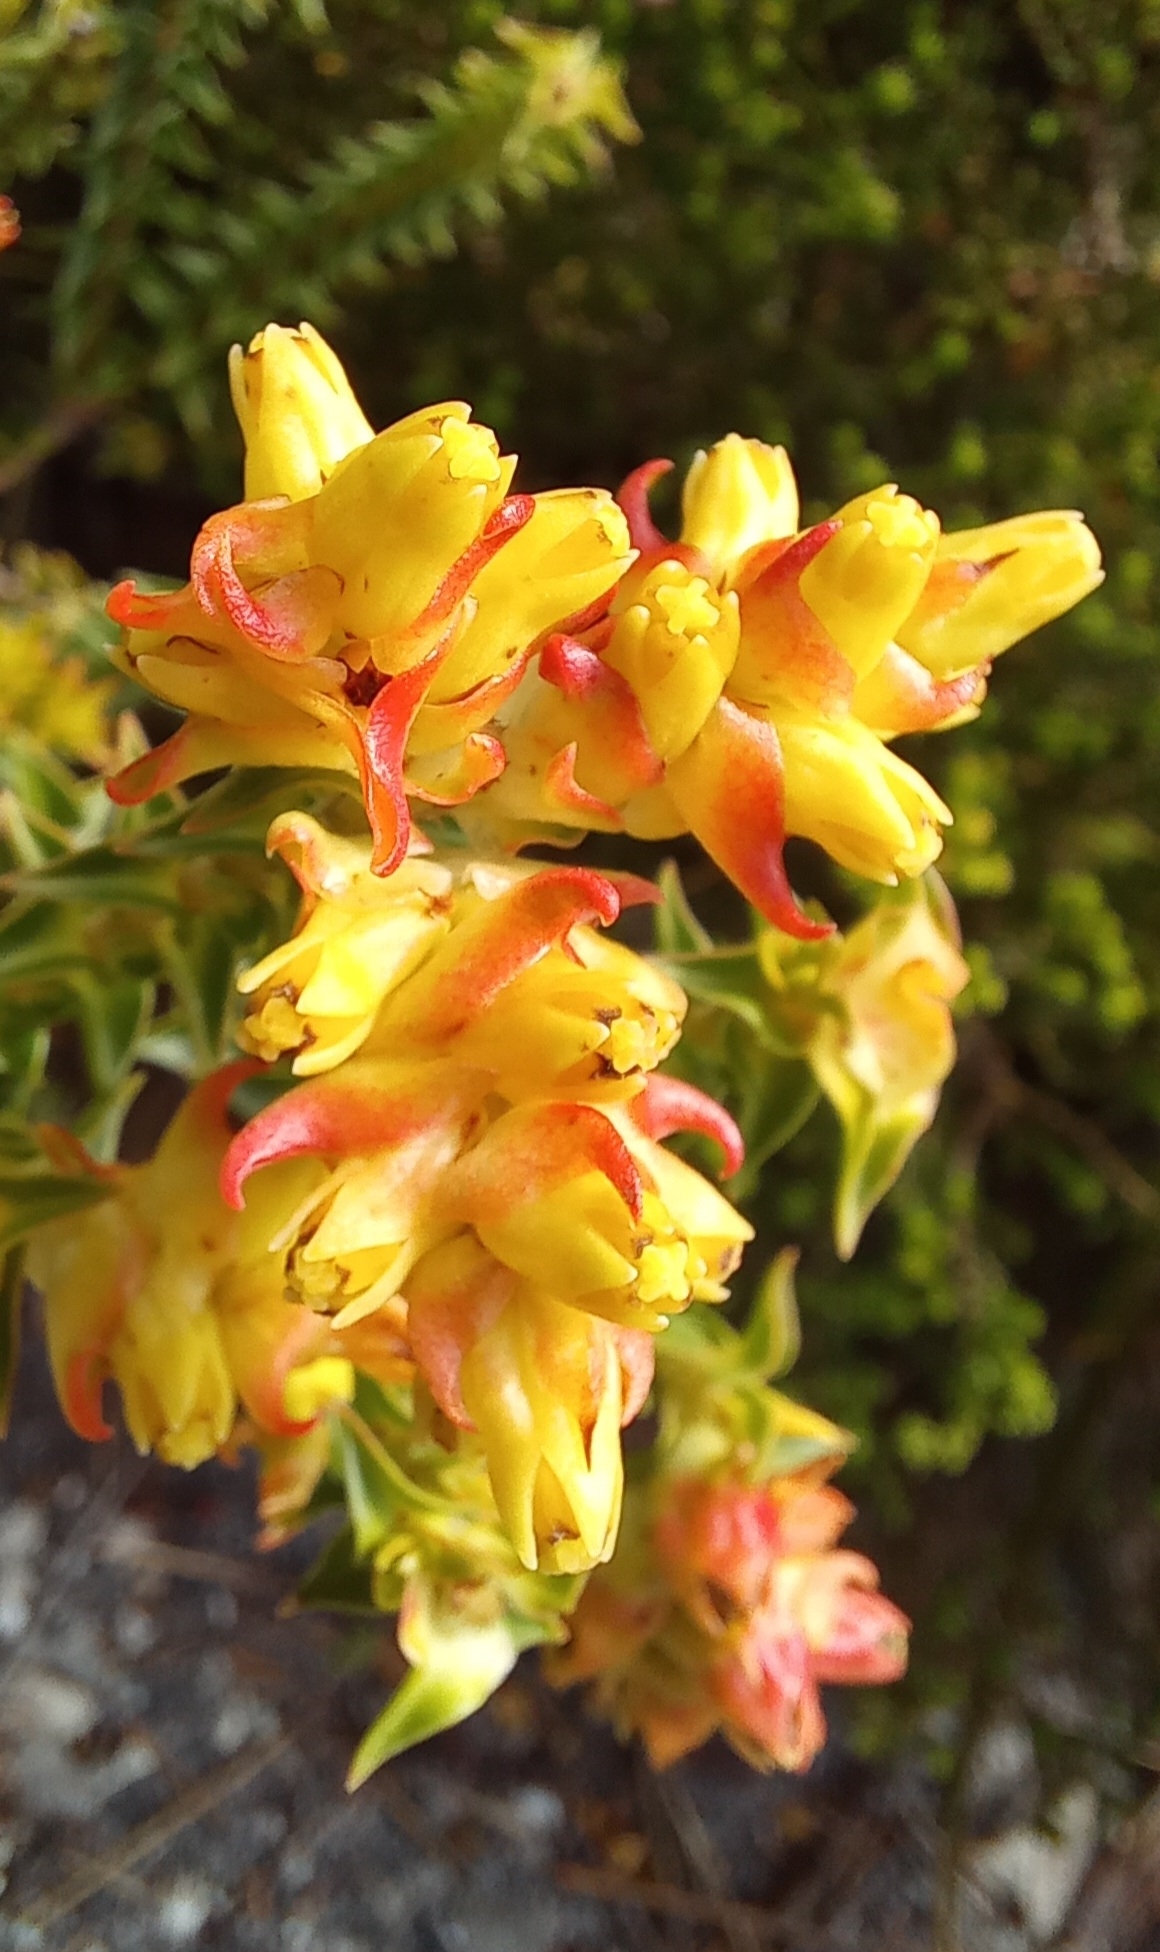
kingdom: Plantae
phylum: Tracheophyta
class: Magnoliopsida
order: Myrtales
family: Penaeaceae
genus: Penaea
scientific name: Penaea mucronata
